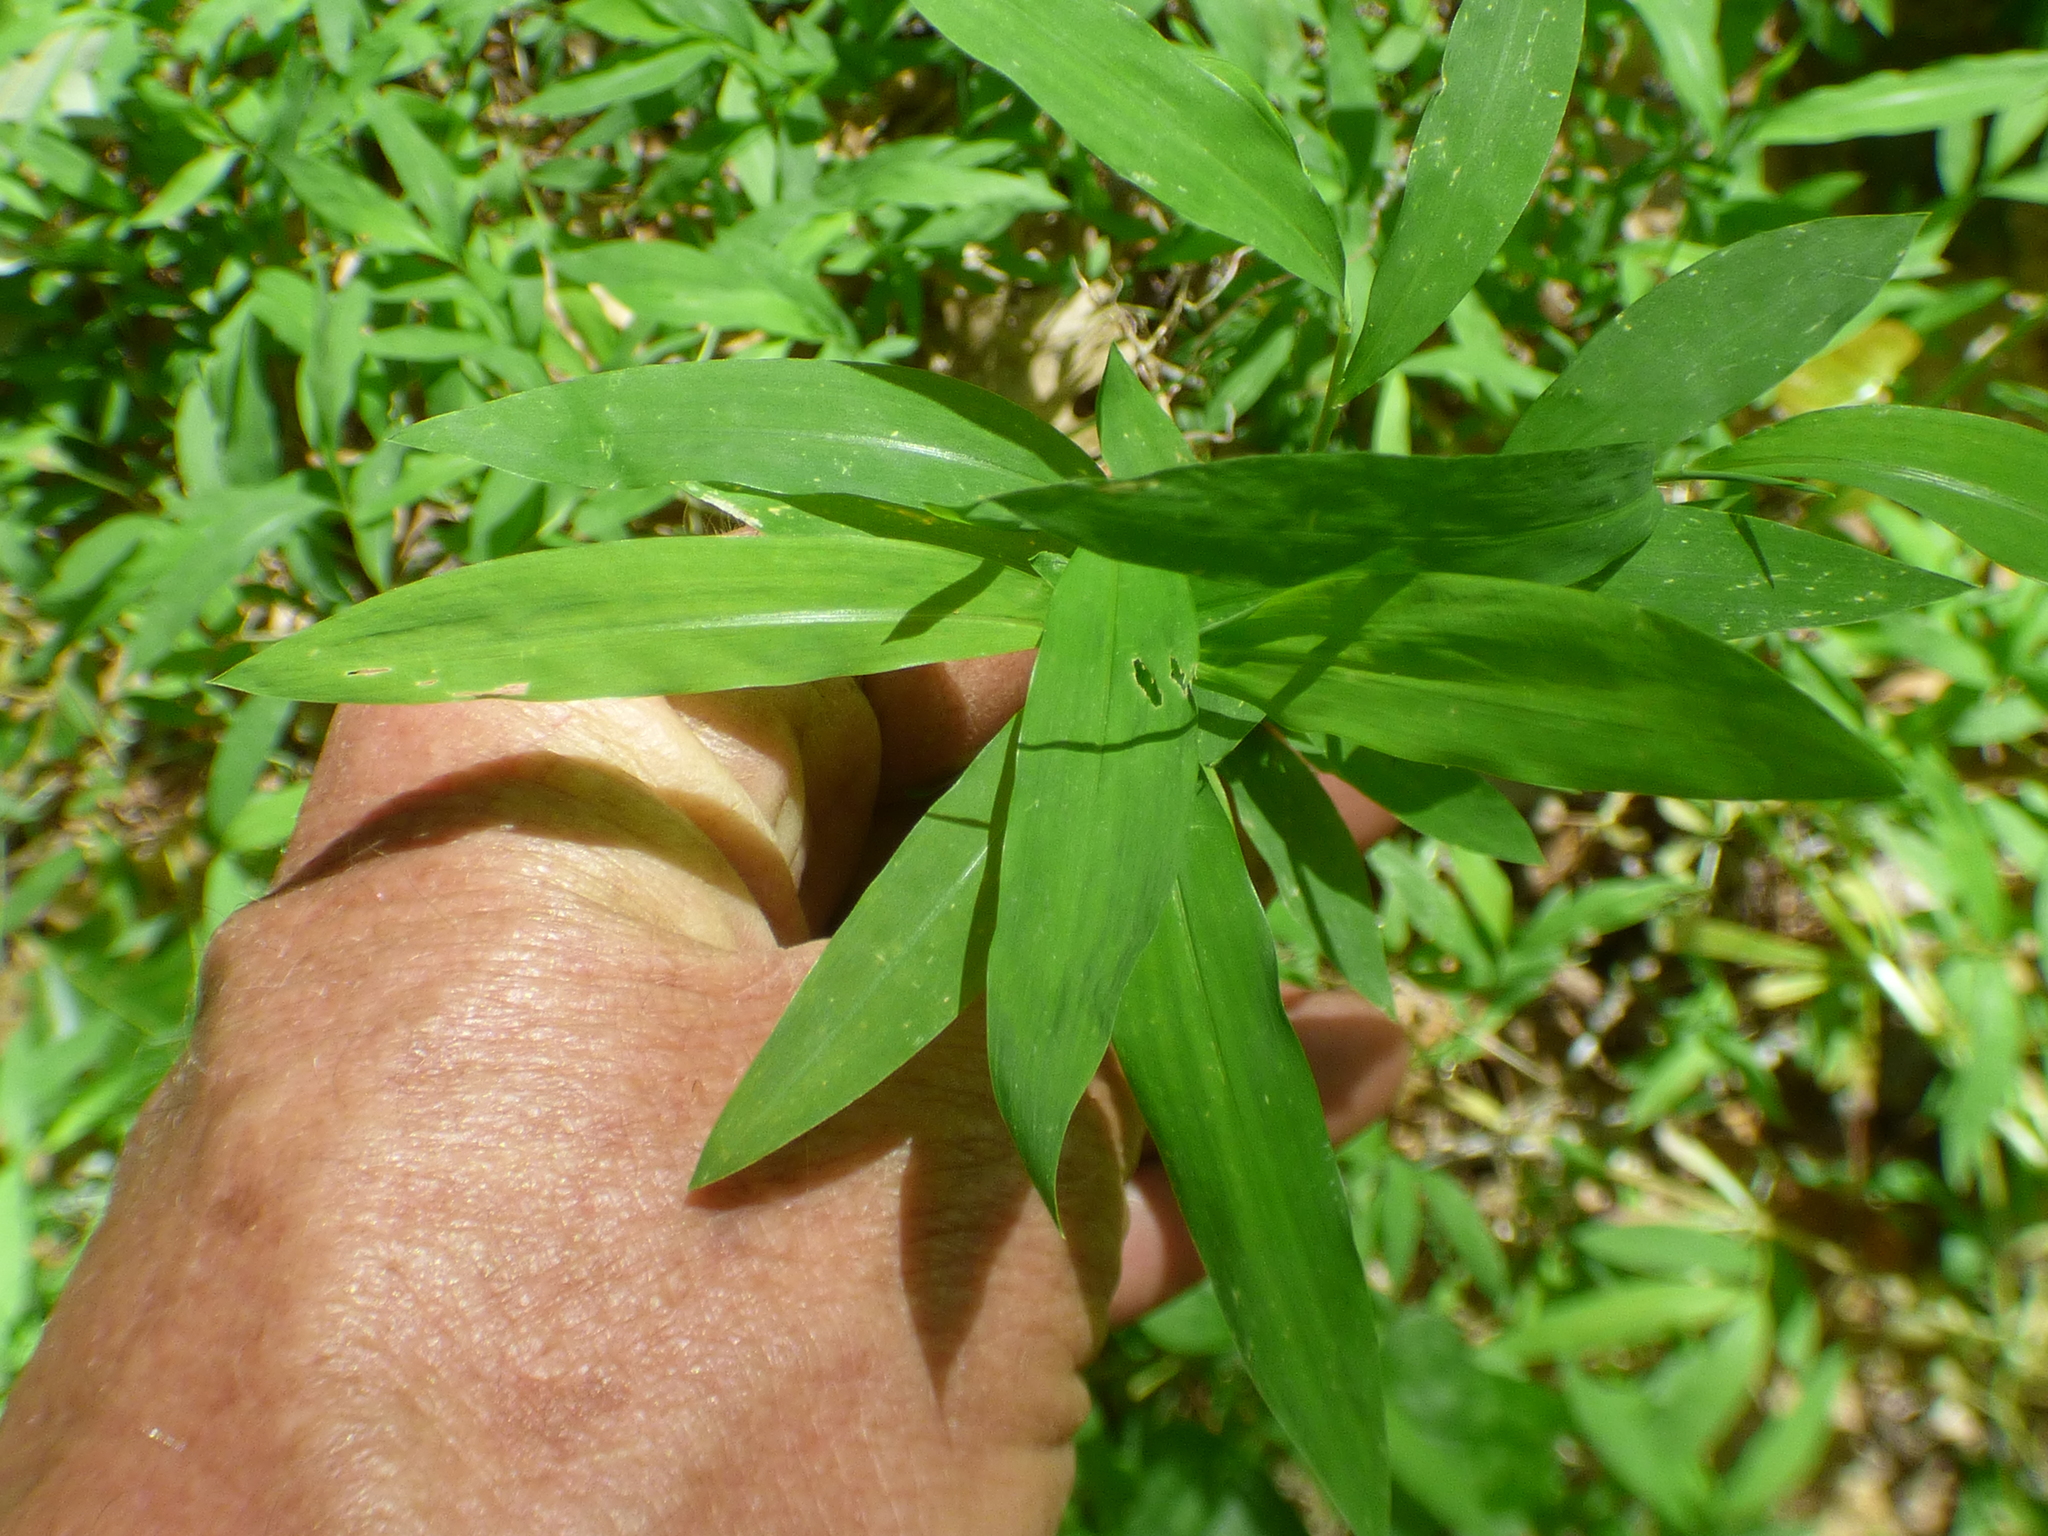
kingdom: Plantae
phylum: Tracheophyta
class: Liliopsida
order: Poales
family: Poaceae
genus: Microstegium
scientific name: Microstegium vimineum
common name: Japanese stiltgrass
